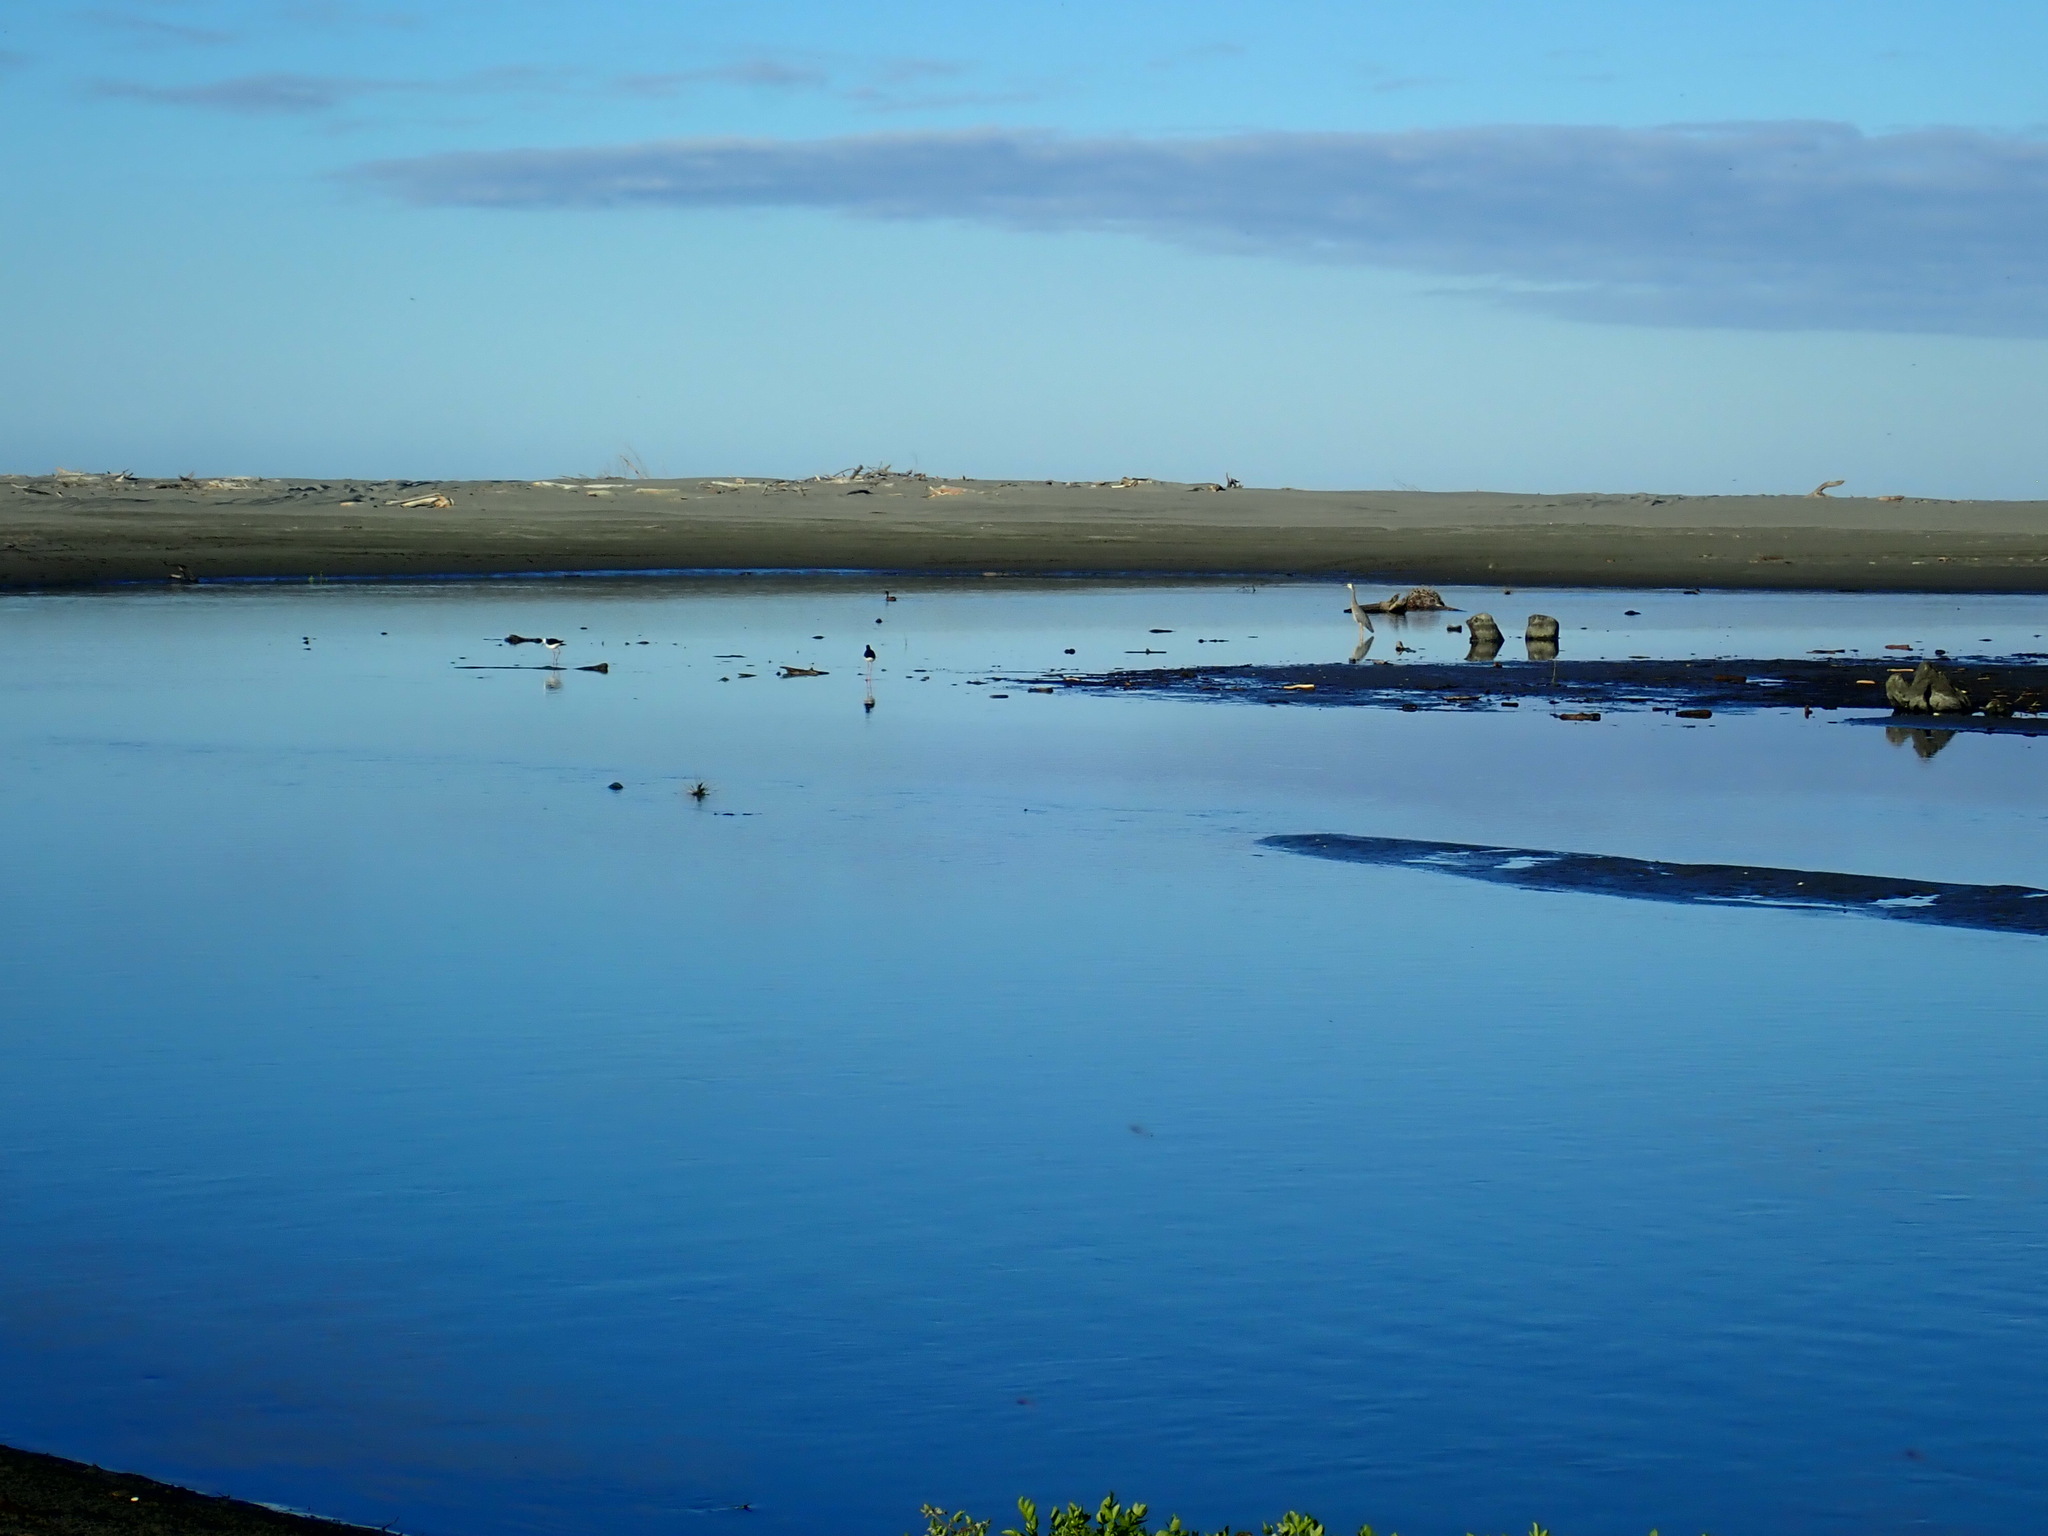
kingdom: Animalia
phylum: Chordata
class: Aves
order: Pelecaniformes
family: Ardeidae
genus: Egretta
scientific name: Egretta novaehollandiae
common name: White-faced heron
